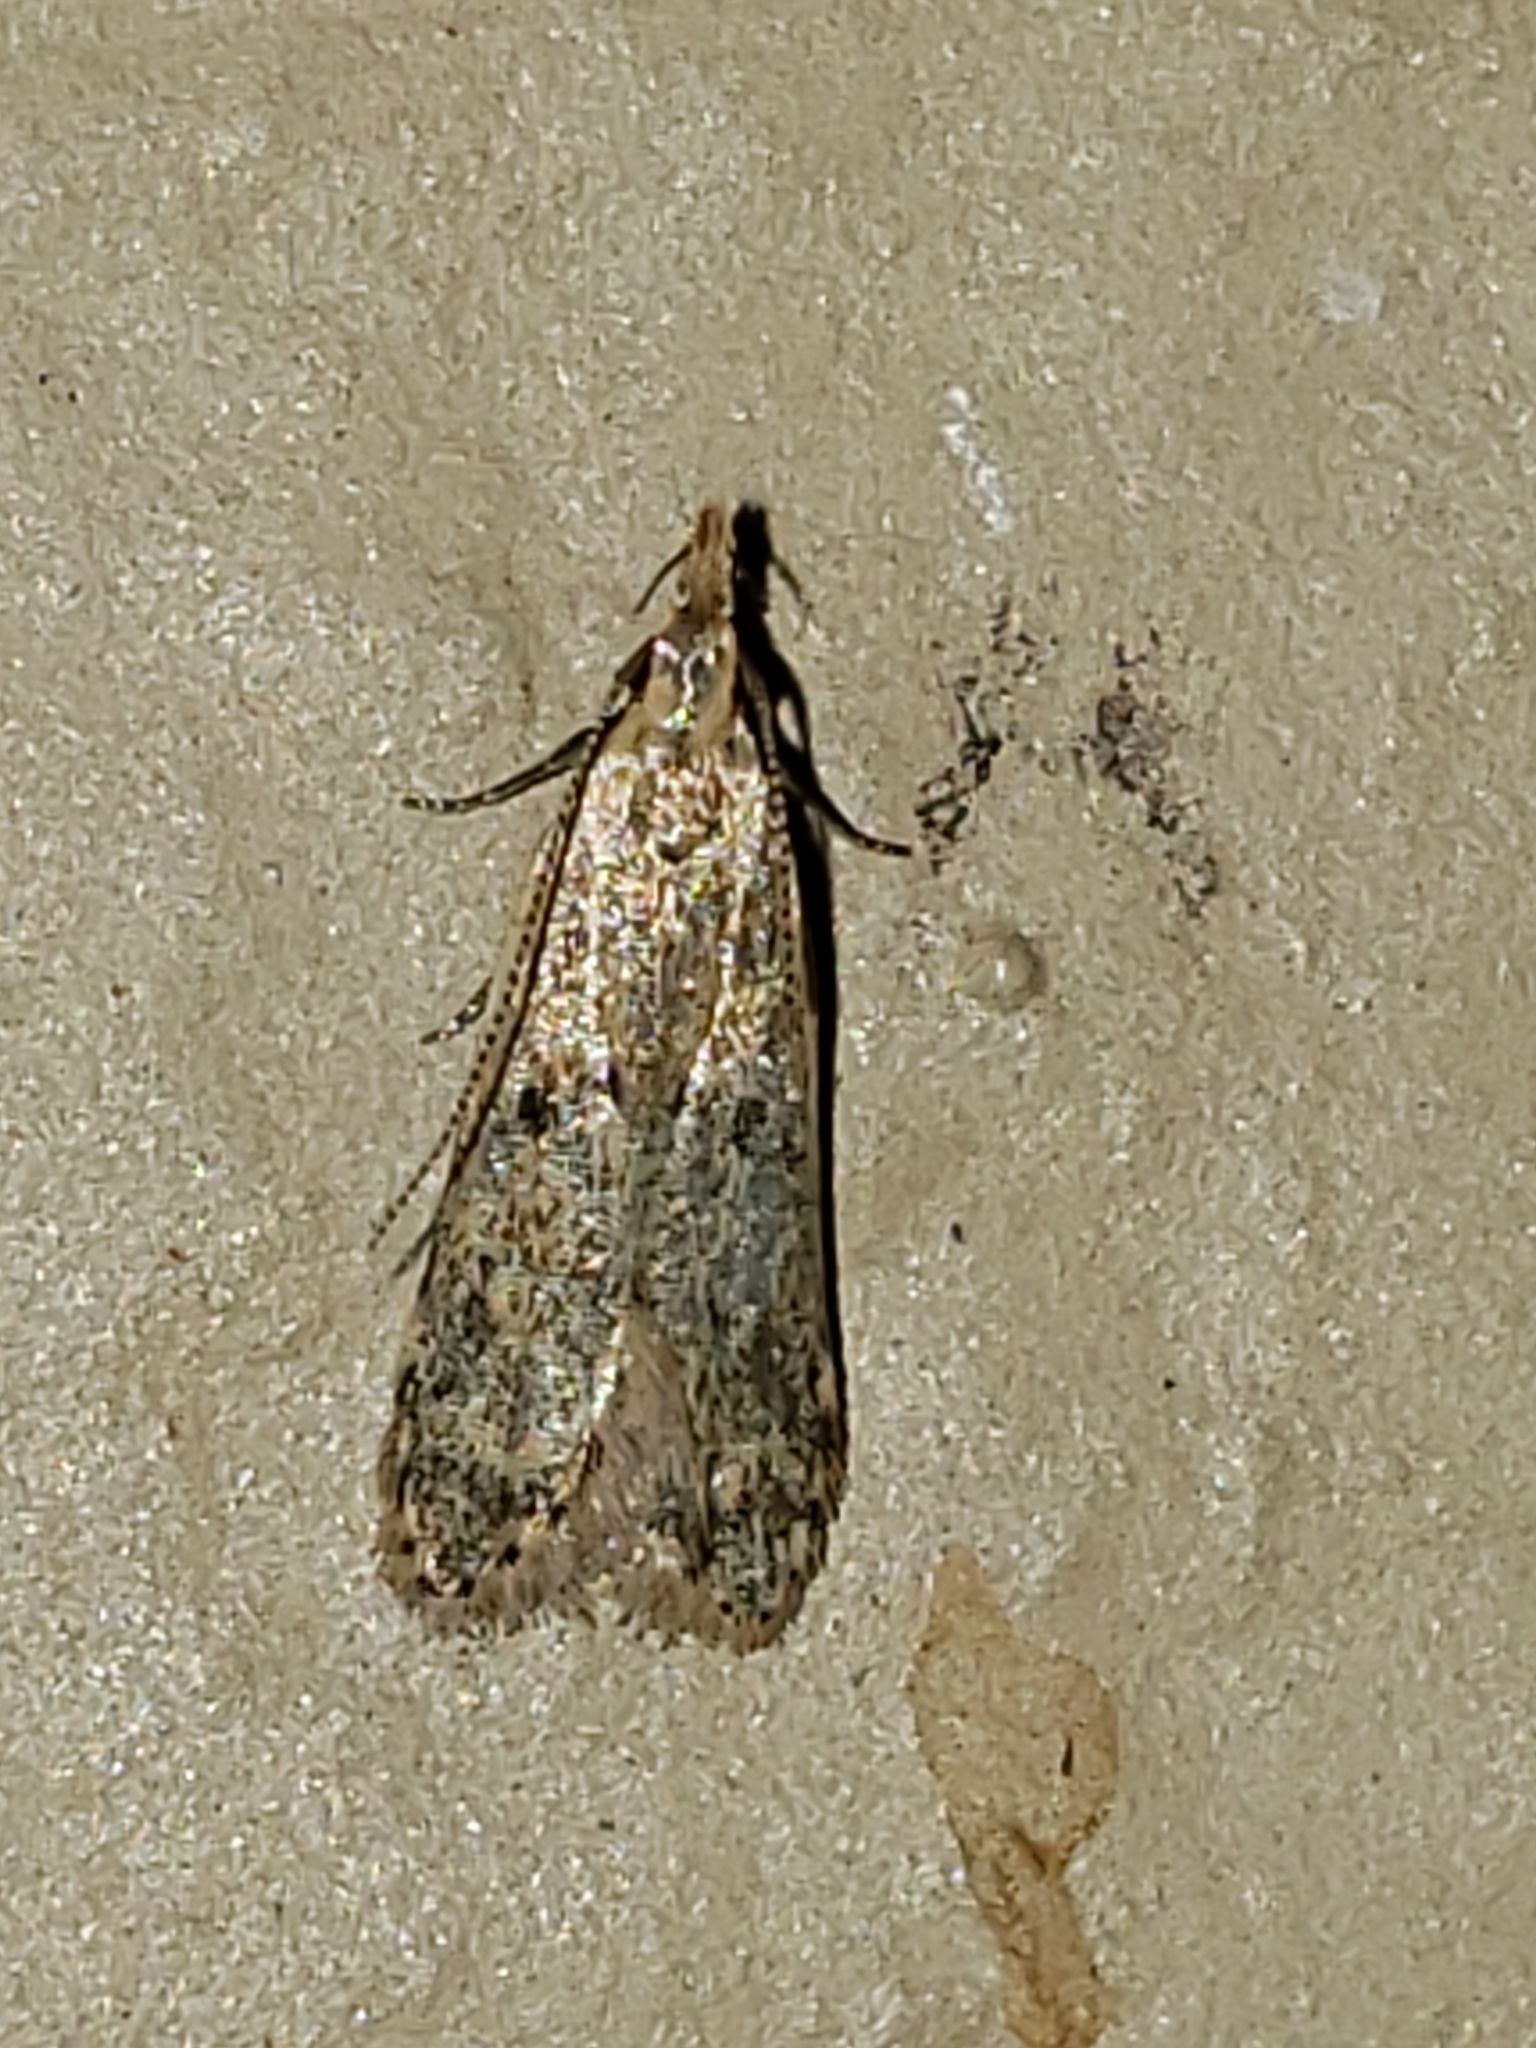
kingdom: Animalia
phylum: Arthropoda
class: Insecta
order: Lepidoptera
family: Gelechiidae
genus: Dichomeris
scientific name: Dichomeris punctipennella
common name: Many-spotted dichomeris moth
